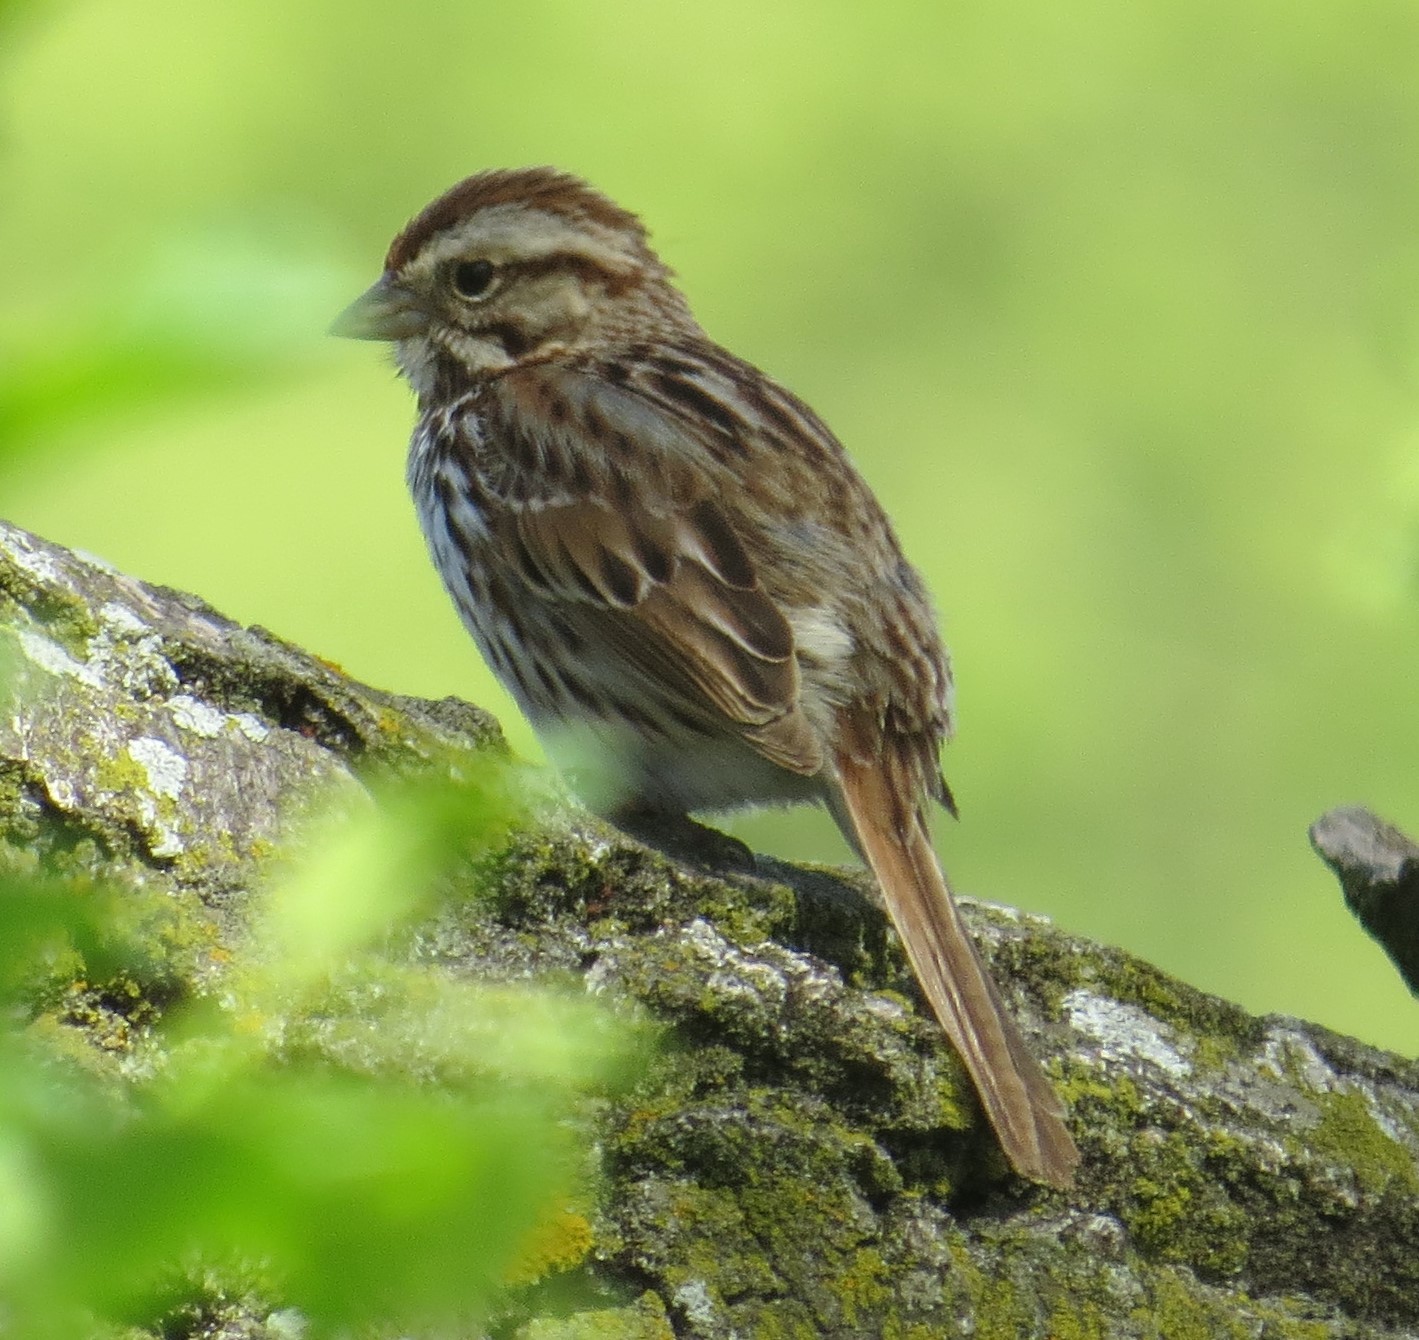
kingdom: Animalia
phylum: Chordata
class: Aves
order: Passeriformes
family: Passerellidae
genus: Melospiza
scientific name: Melospiza melodia
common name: Song sparrow
